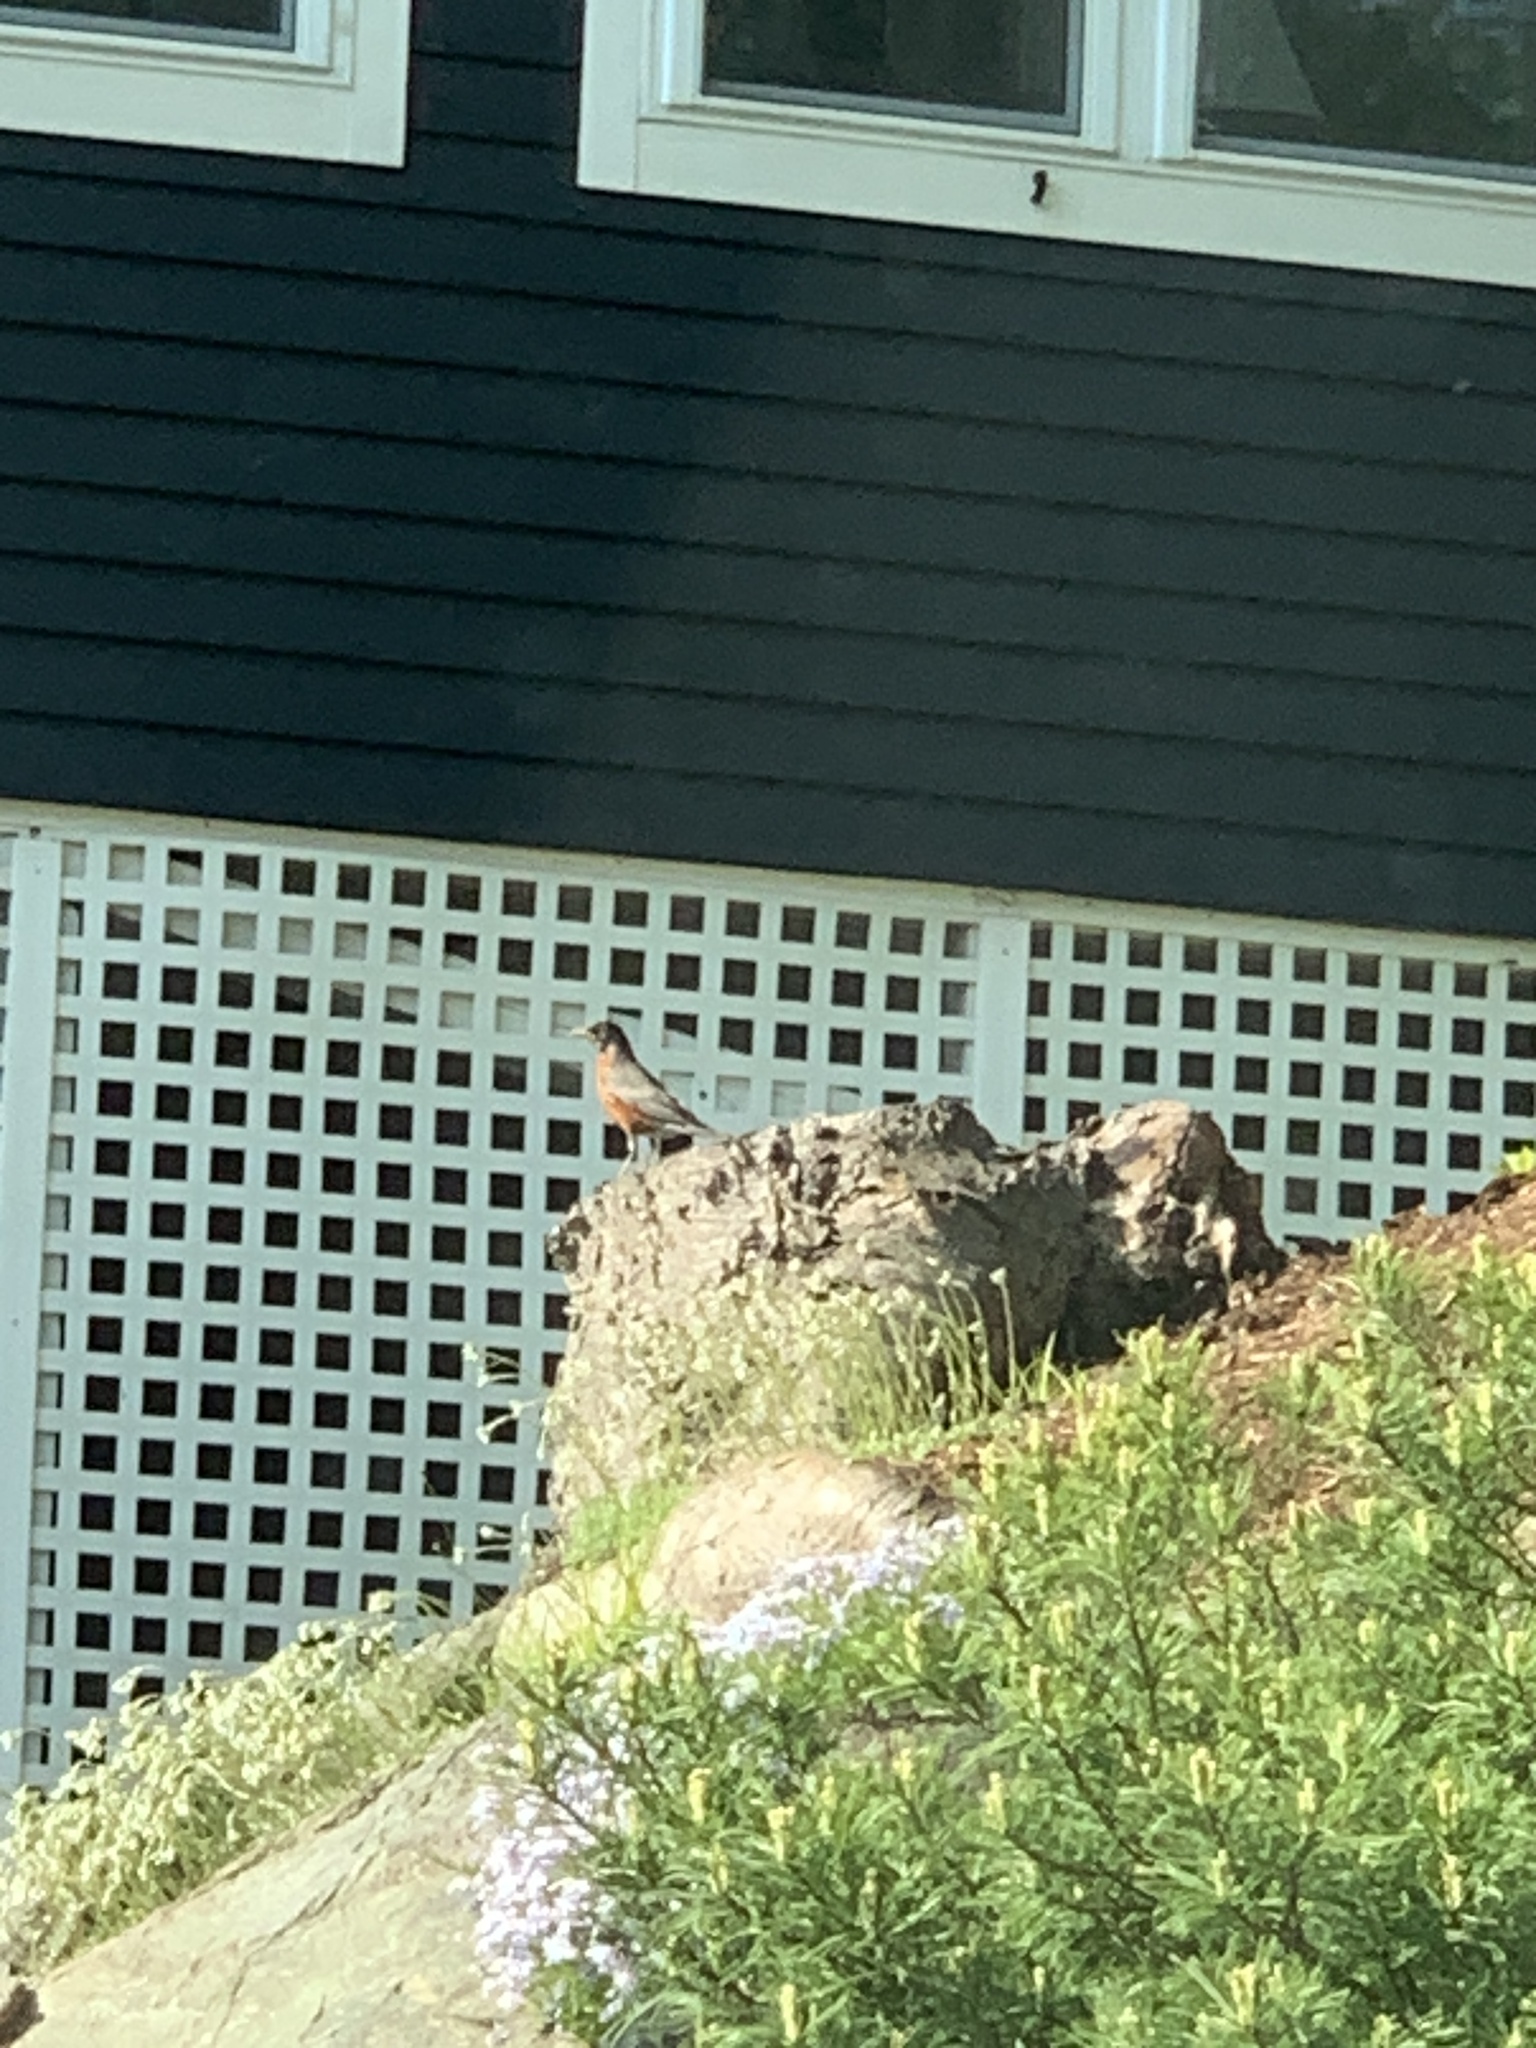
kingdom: Animalia
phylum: Chordata
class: Aves
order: Passeriformes
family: Turdidae
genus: Turdus
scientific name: Turdus migratorius
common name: American robin
